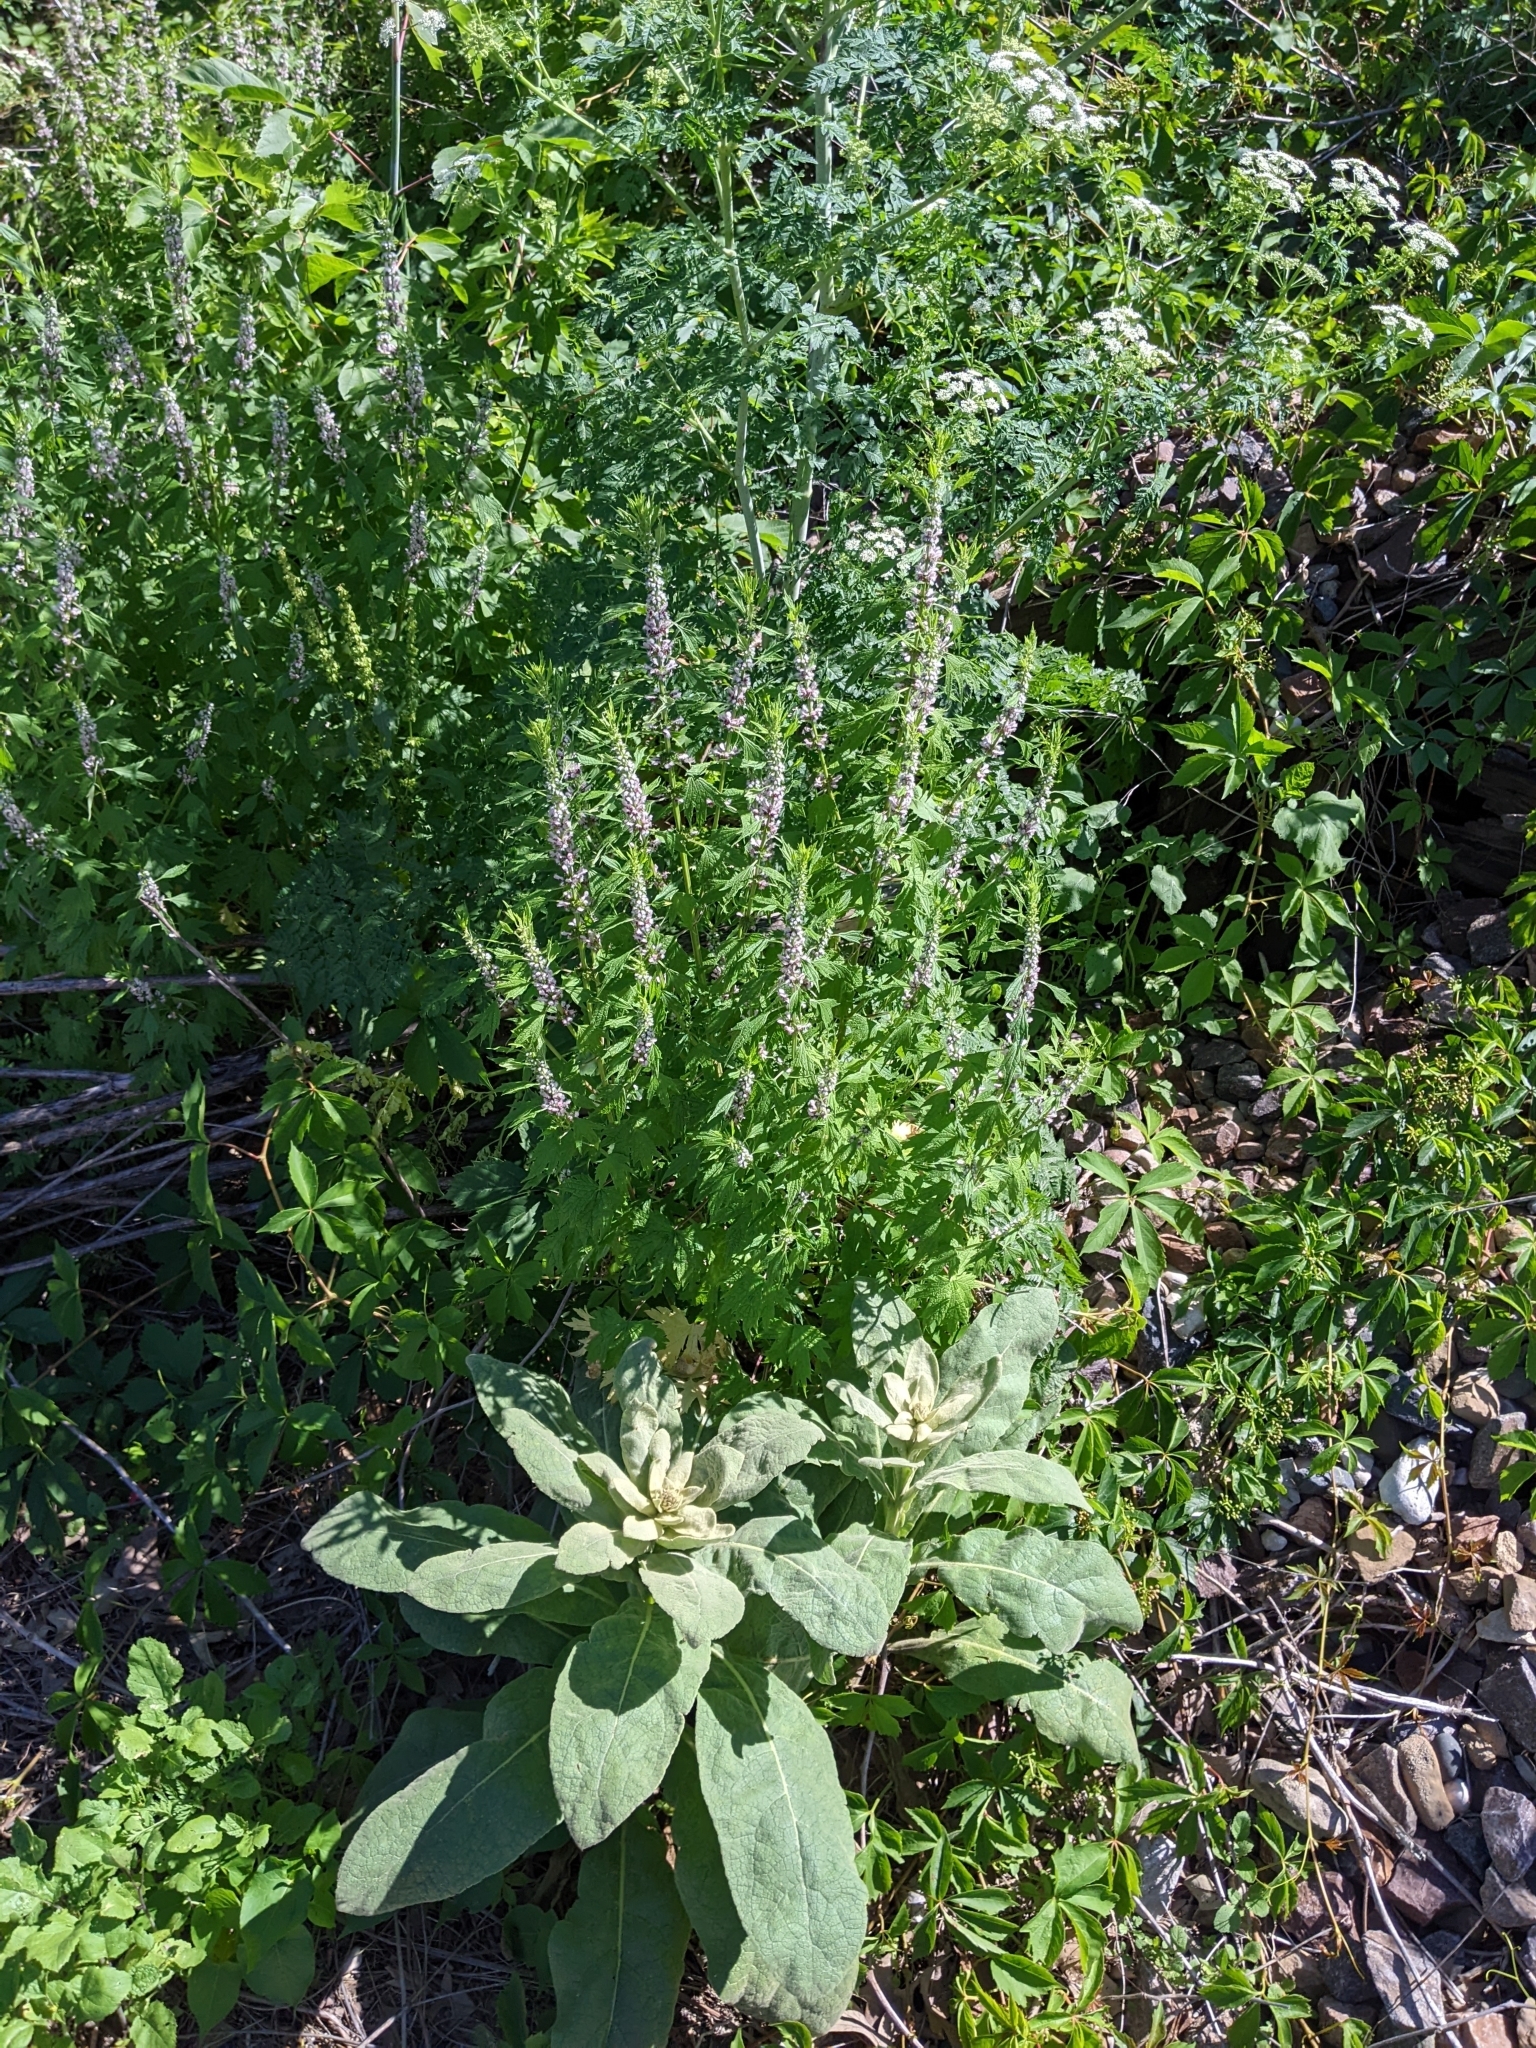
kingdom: Plantae
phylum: Tracheophyta
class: Magnoliopsida
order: Lamiales
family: Lamiaceae
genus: Leonurus
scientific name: Leonurus cardiaca
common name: Motherwort
